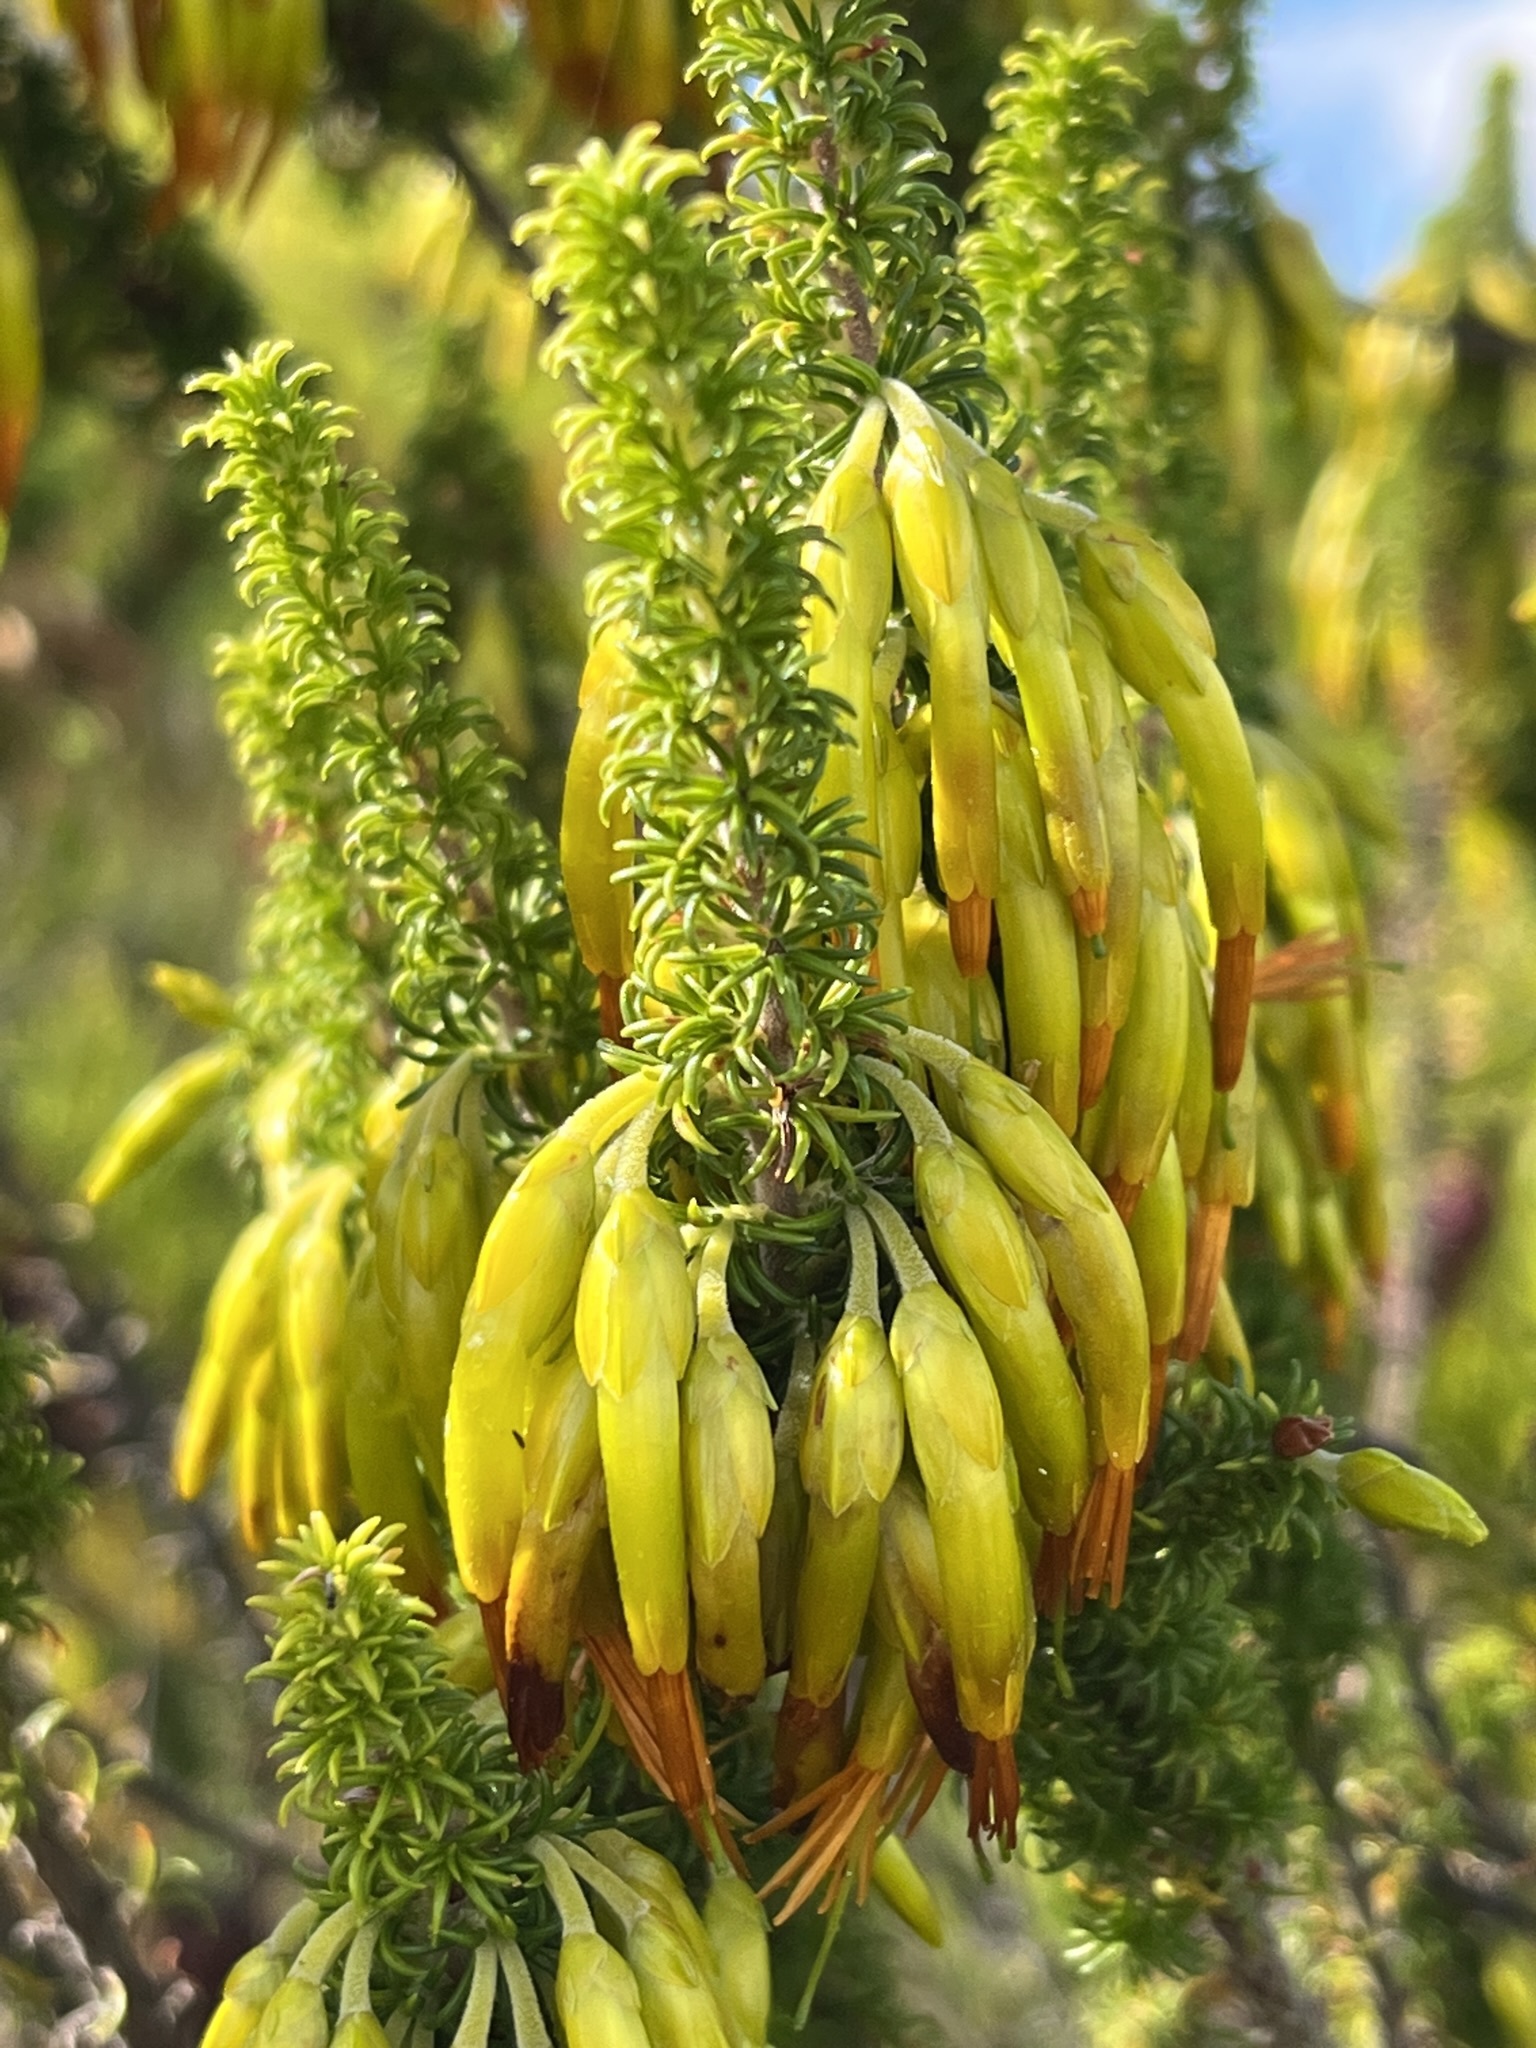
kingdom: Plantae
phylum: Tracheophyta
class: Magnoliopsida
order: Ericales
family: Ericaceae
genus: Erica
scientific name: Erica coccinea
